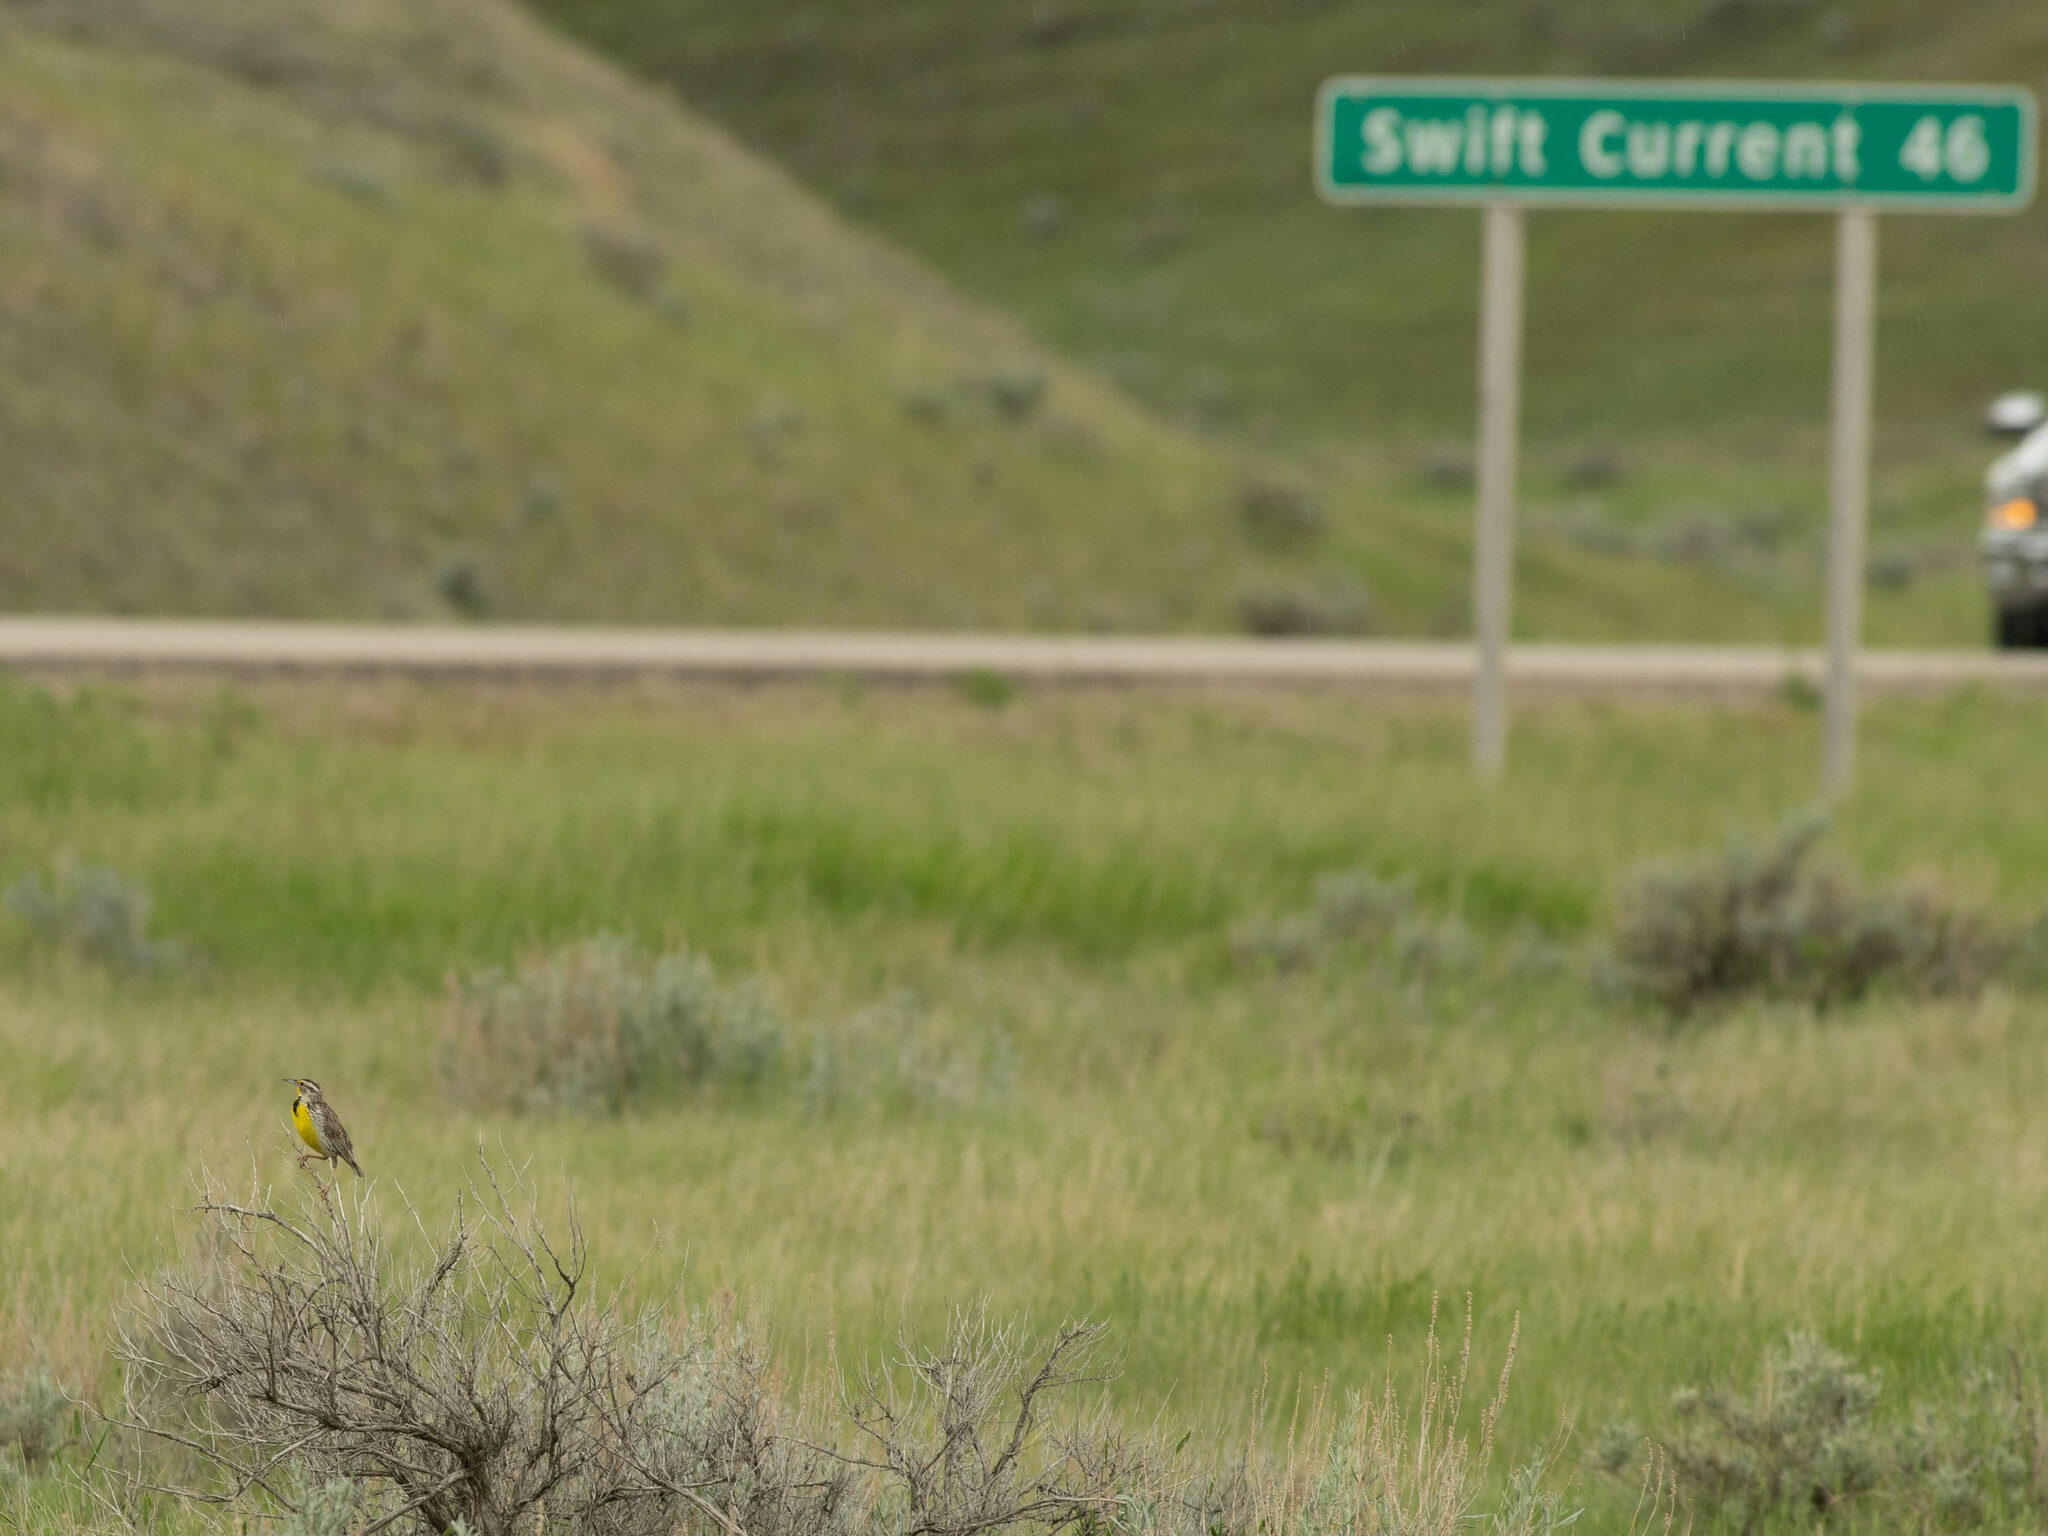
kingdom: Animalia
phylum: Chordata
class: Aves
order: Passeriformes
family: Icteridae
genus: Sturnella
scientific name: Sturnella neglecta
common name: Western meadowlark
